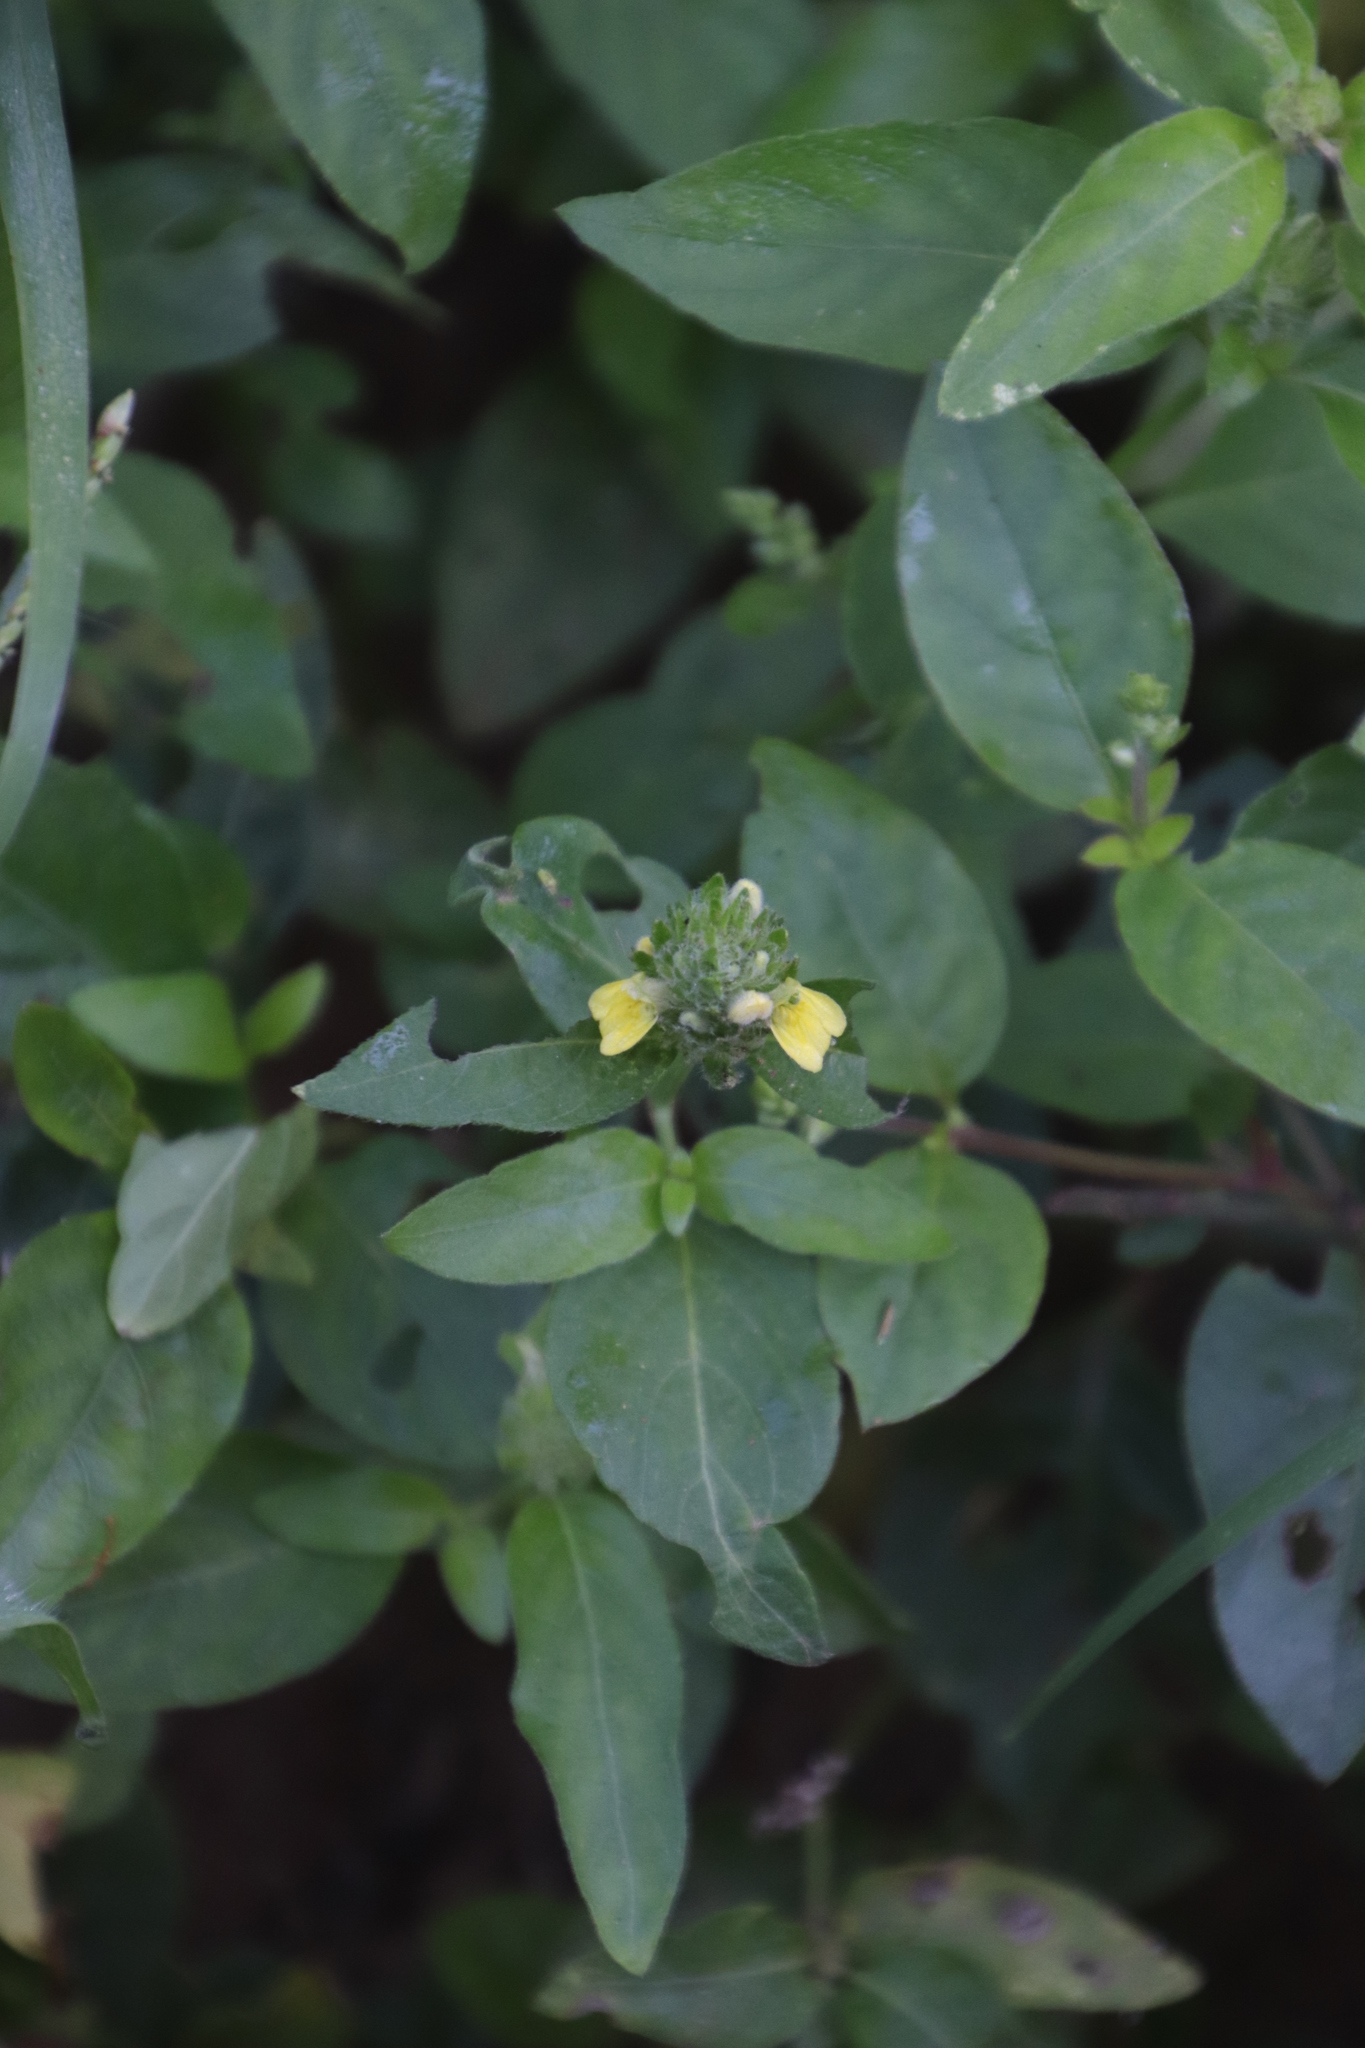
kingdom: Plantae
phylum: Tracheophyta
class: Magnoliopsida
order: Lamiales
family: Acanthaceae
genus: Justicia
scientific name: Justicia flava
